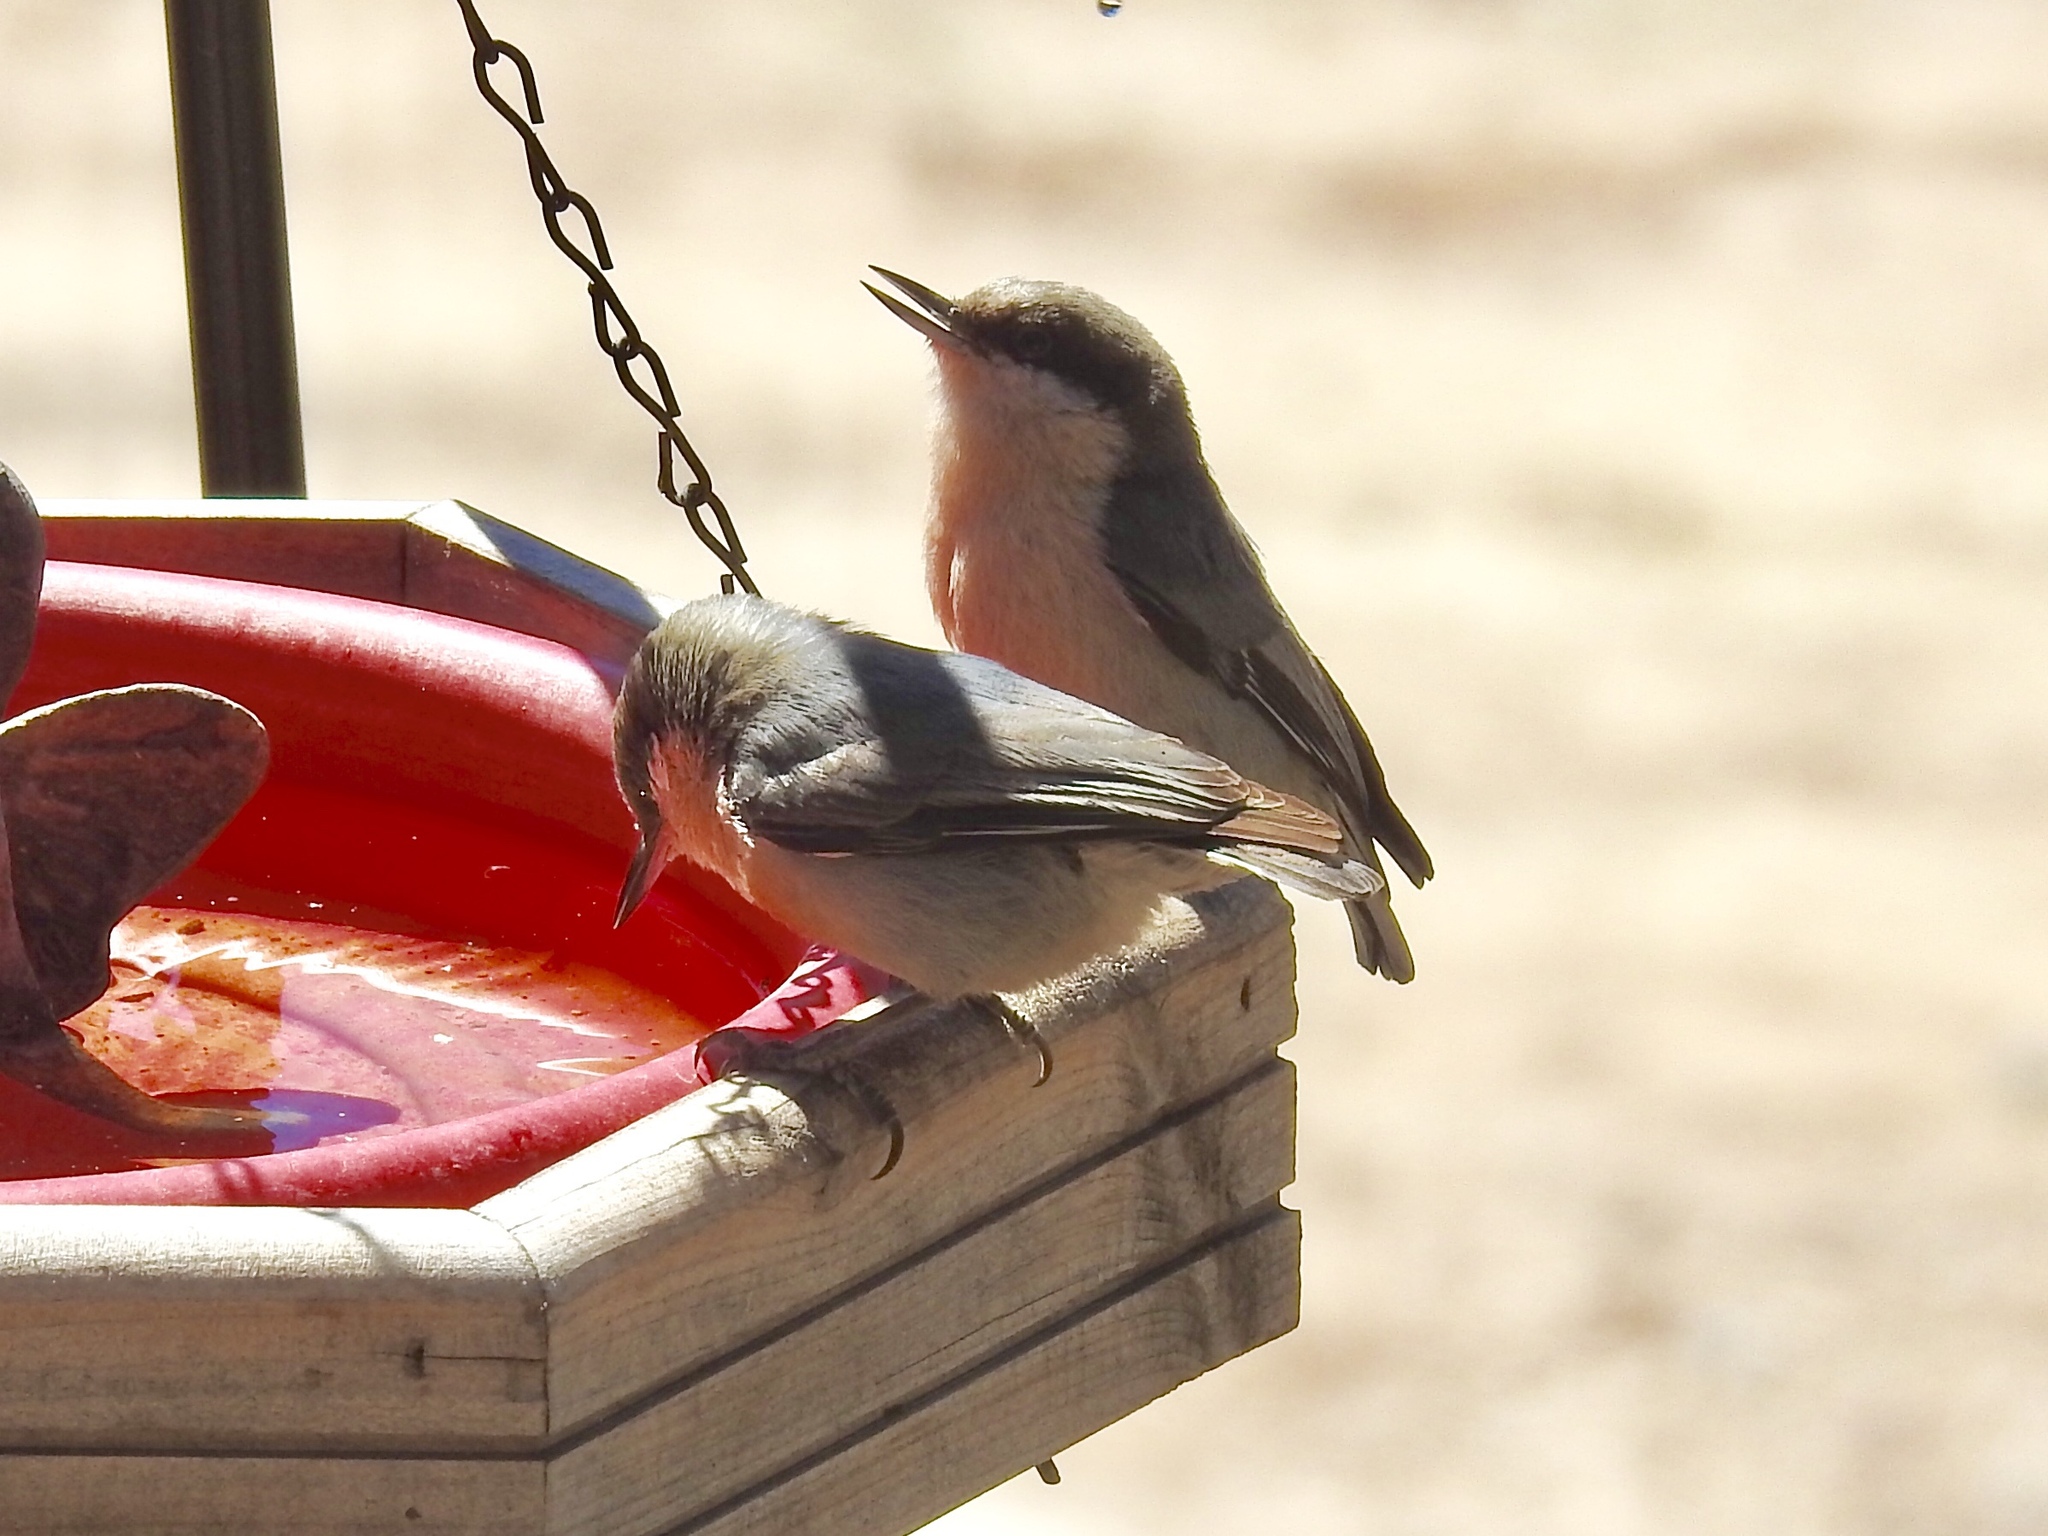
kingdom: Animalia
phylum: Chordata
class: Aves
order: Passeriformes
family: Sittidae
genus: Sitta
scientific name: Sitta pygmaea
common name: Pygmy nuthatch
